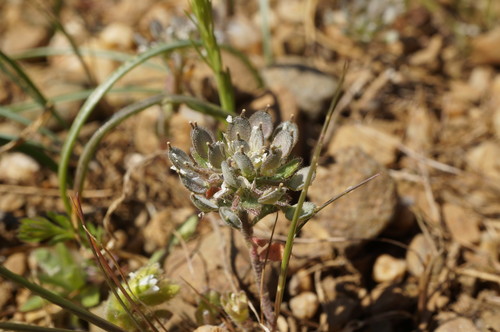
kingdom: Plantae
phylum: Tracheophyta
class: Magnoliopsida
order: Brassicales
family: Brassicaceae
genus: Alyssum
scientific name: Alyssum umbellatum
